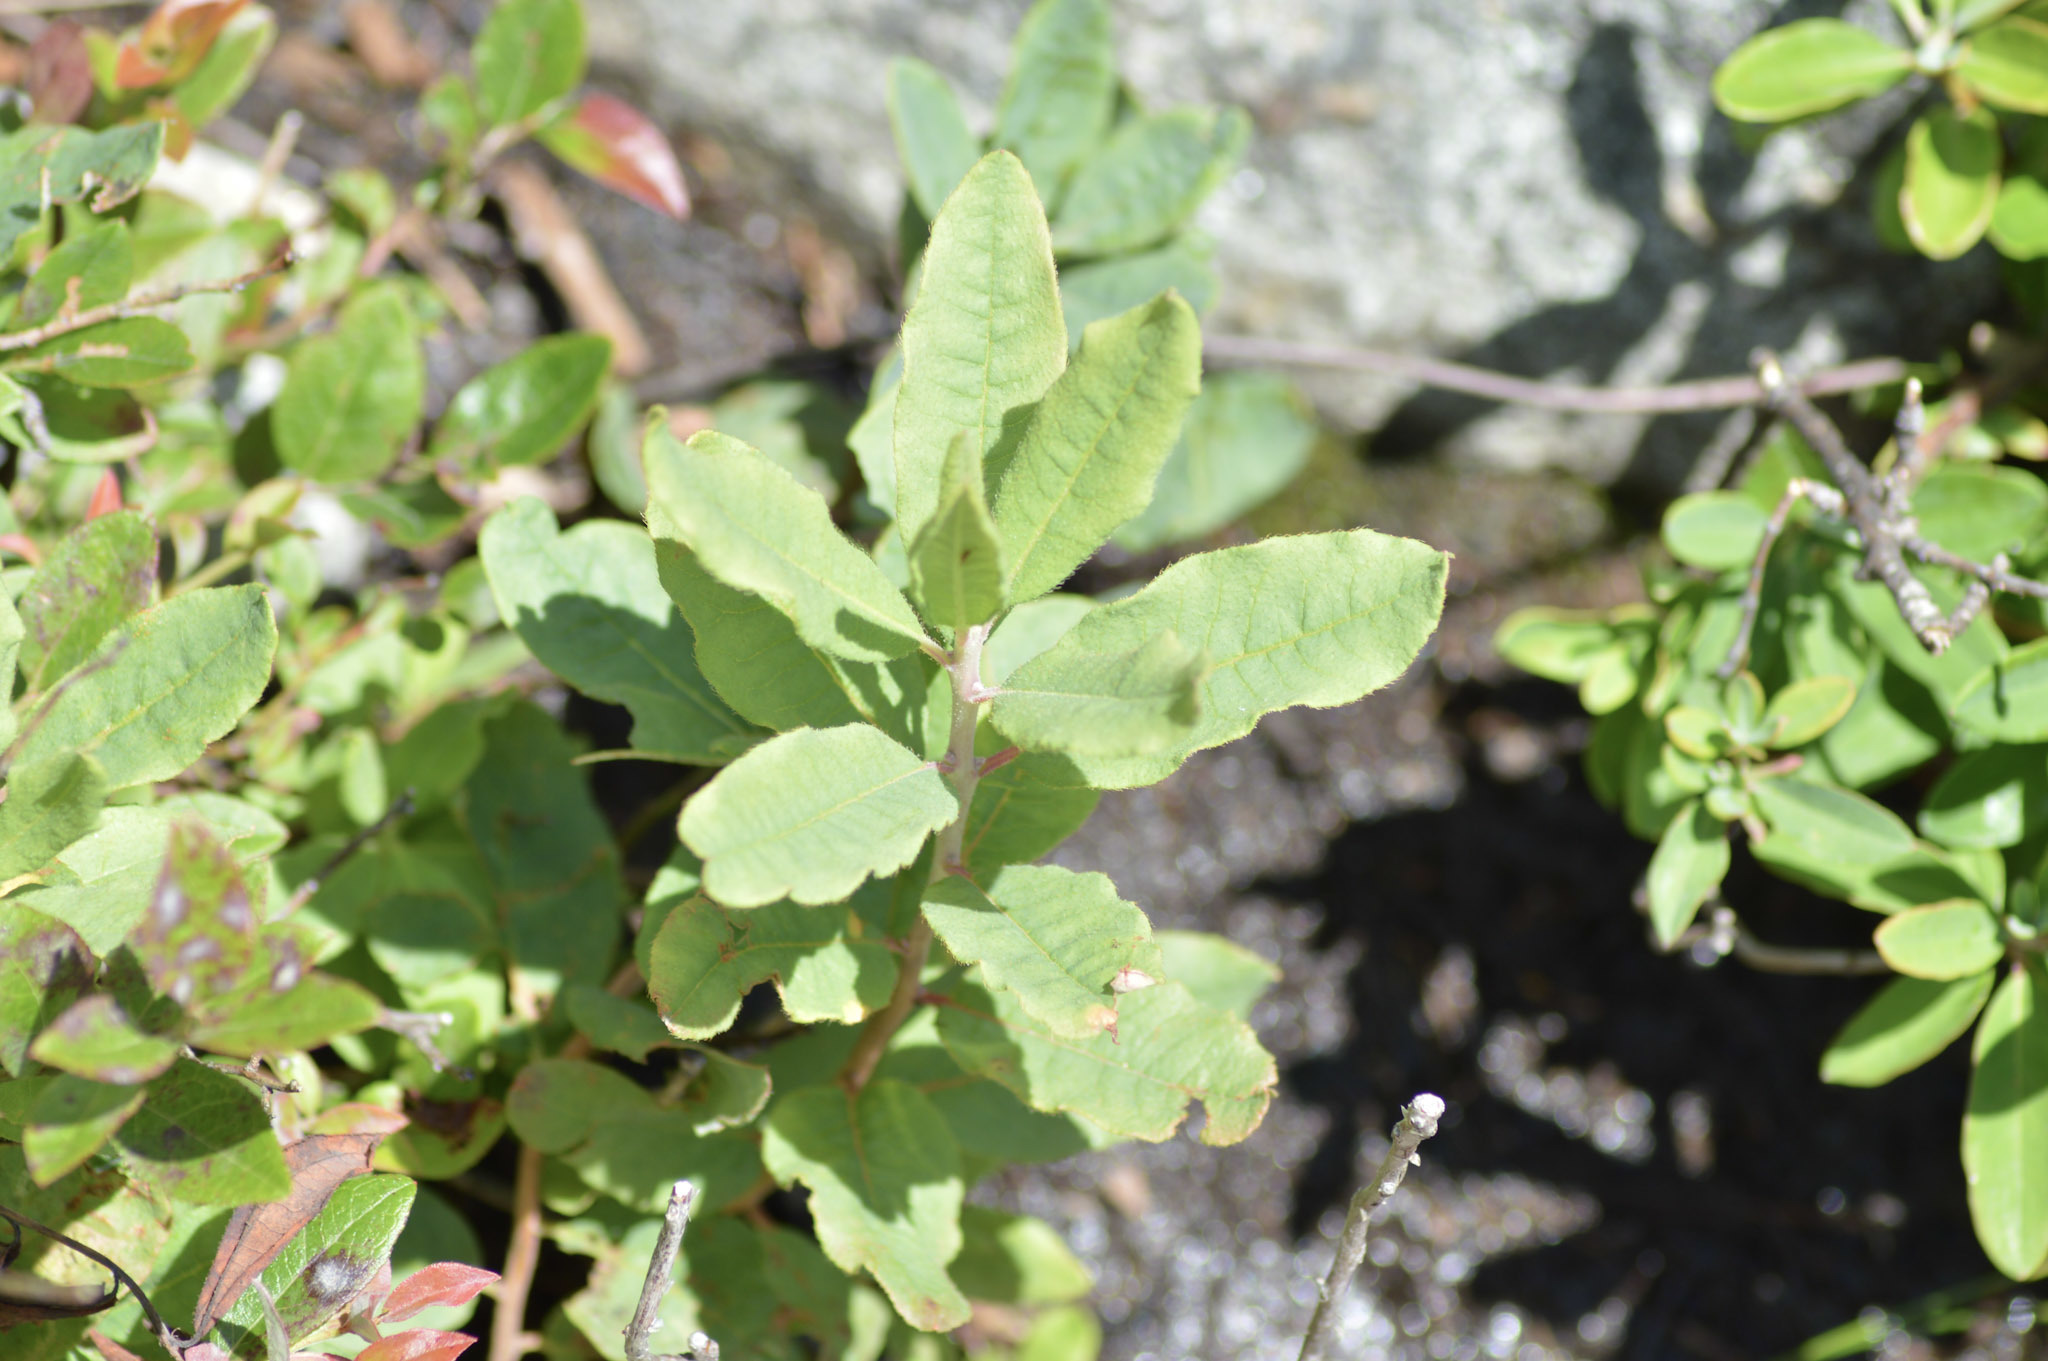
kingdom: Plantae
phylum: Tracheophyta
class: Magnoliopsida
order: Ericales
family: Ericaceae
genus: Rhododendron
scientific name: Rhododendron canadense
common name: Rhodora
